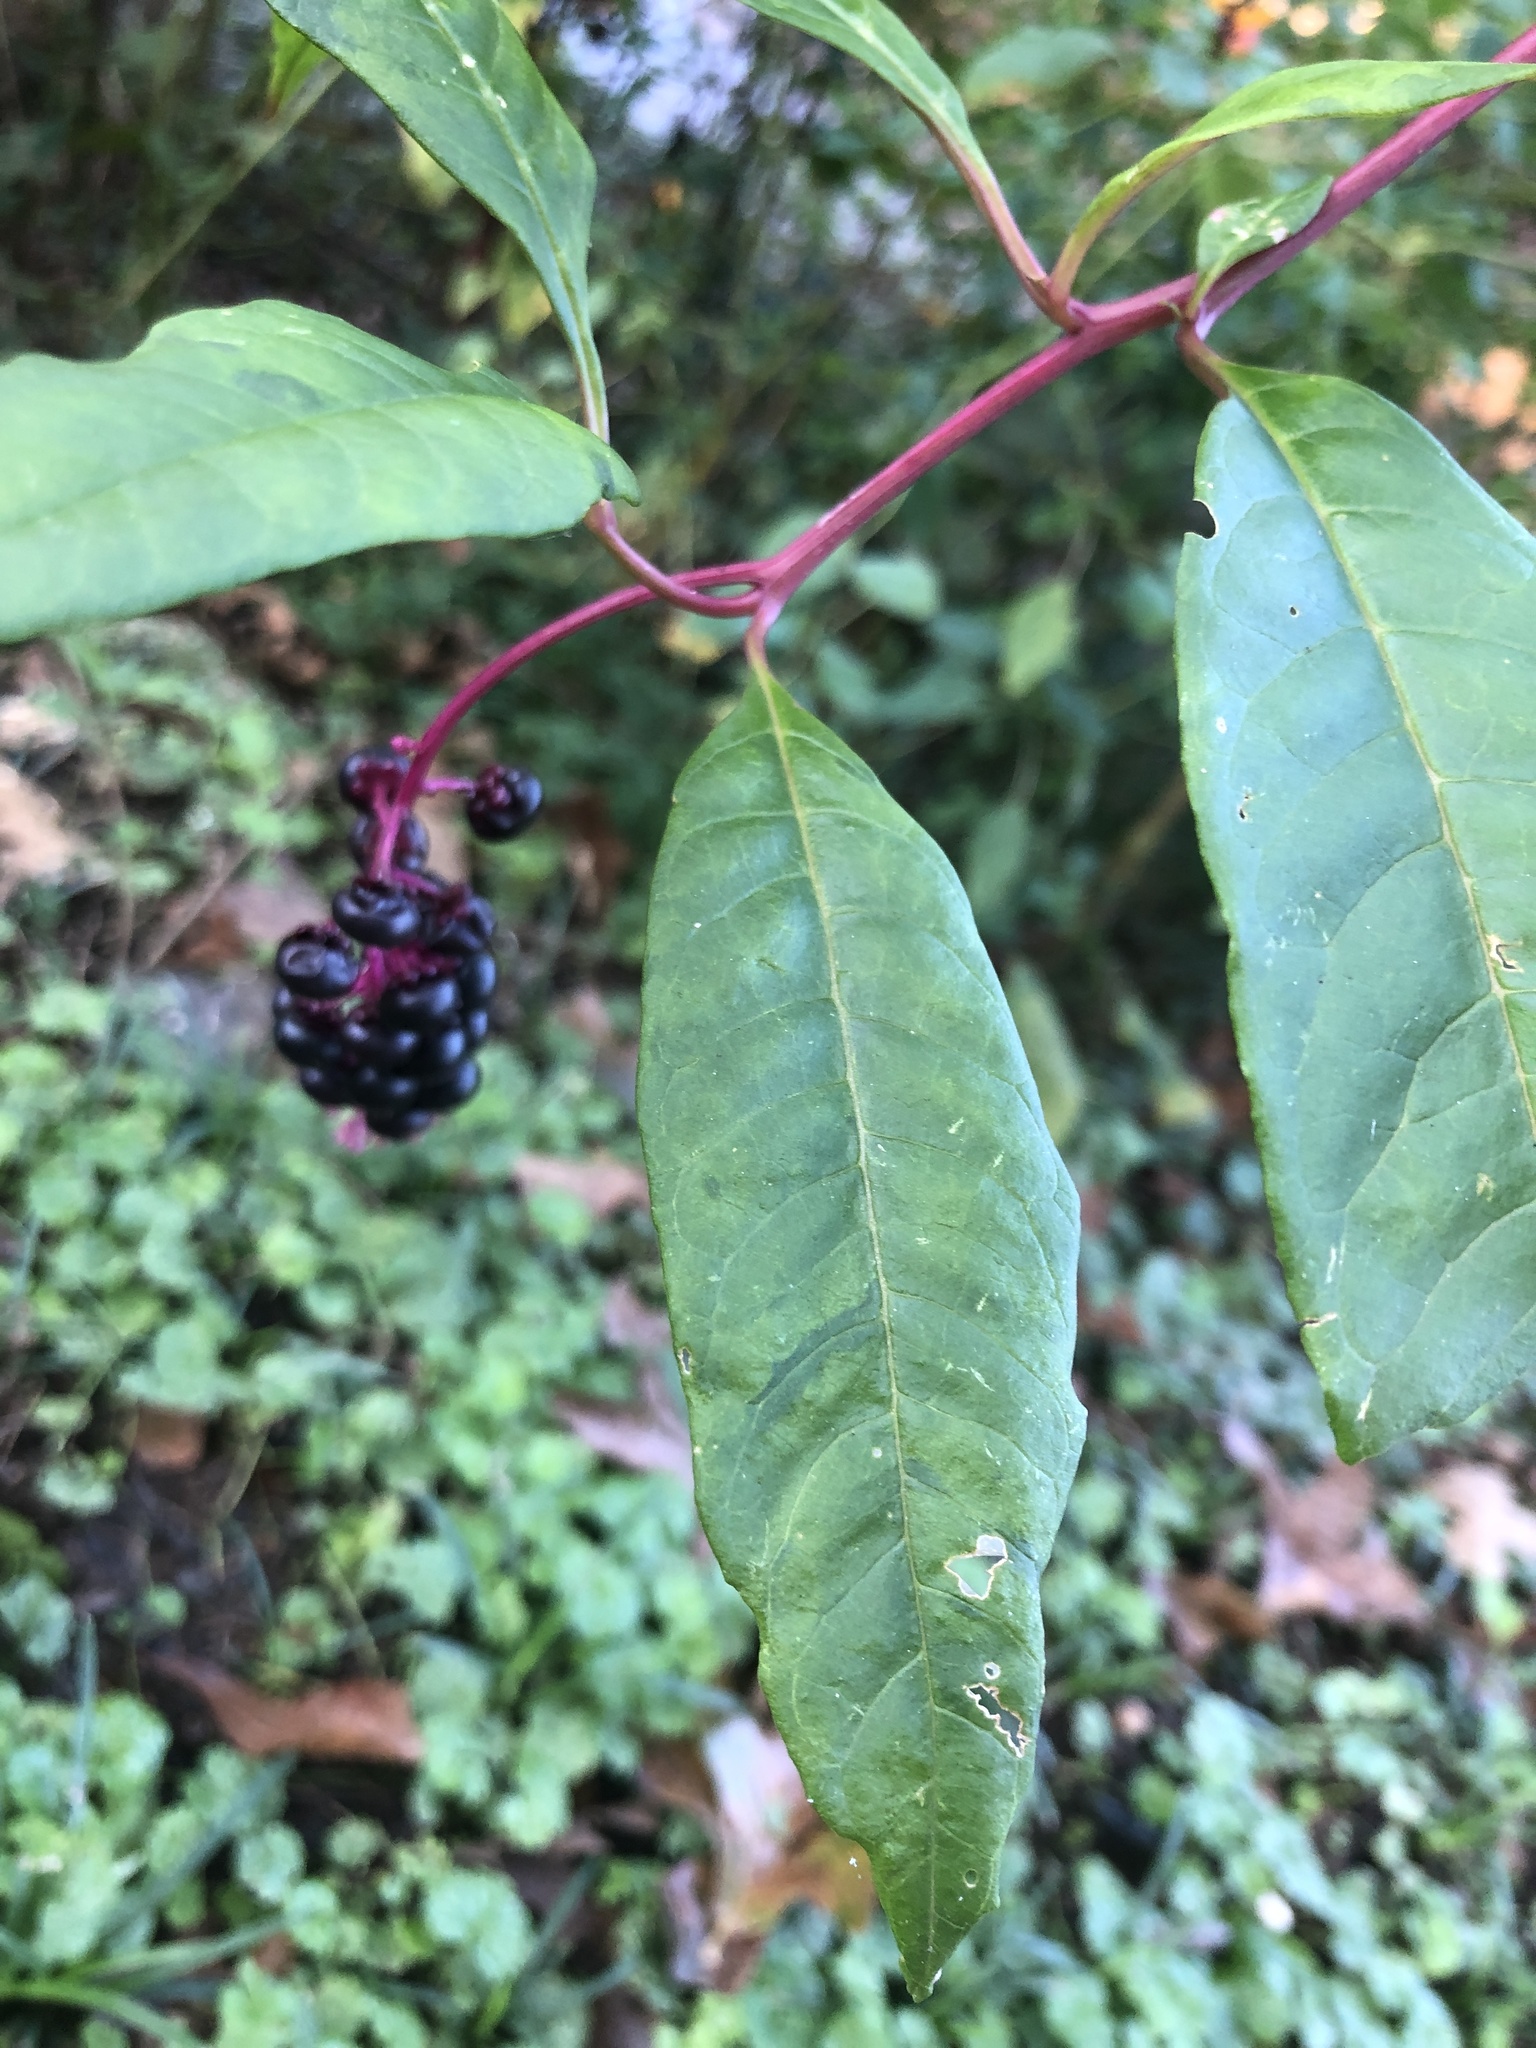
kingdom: Plantae
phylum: Tracheophyta
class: Magnoliopsida
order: Caryophyllales
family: Phytolaccaceae
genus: Phytolacca
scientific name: Phytolacca americana
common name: American pokeweed
